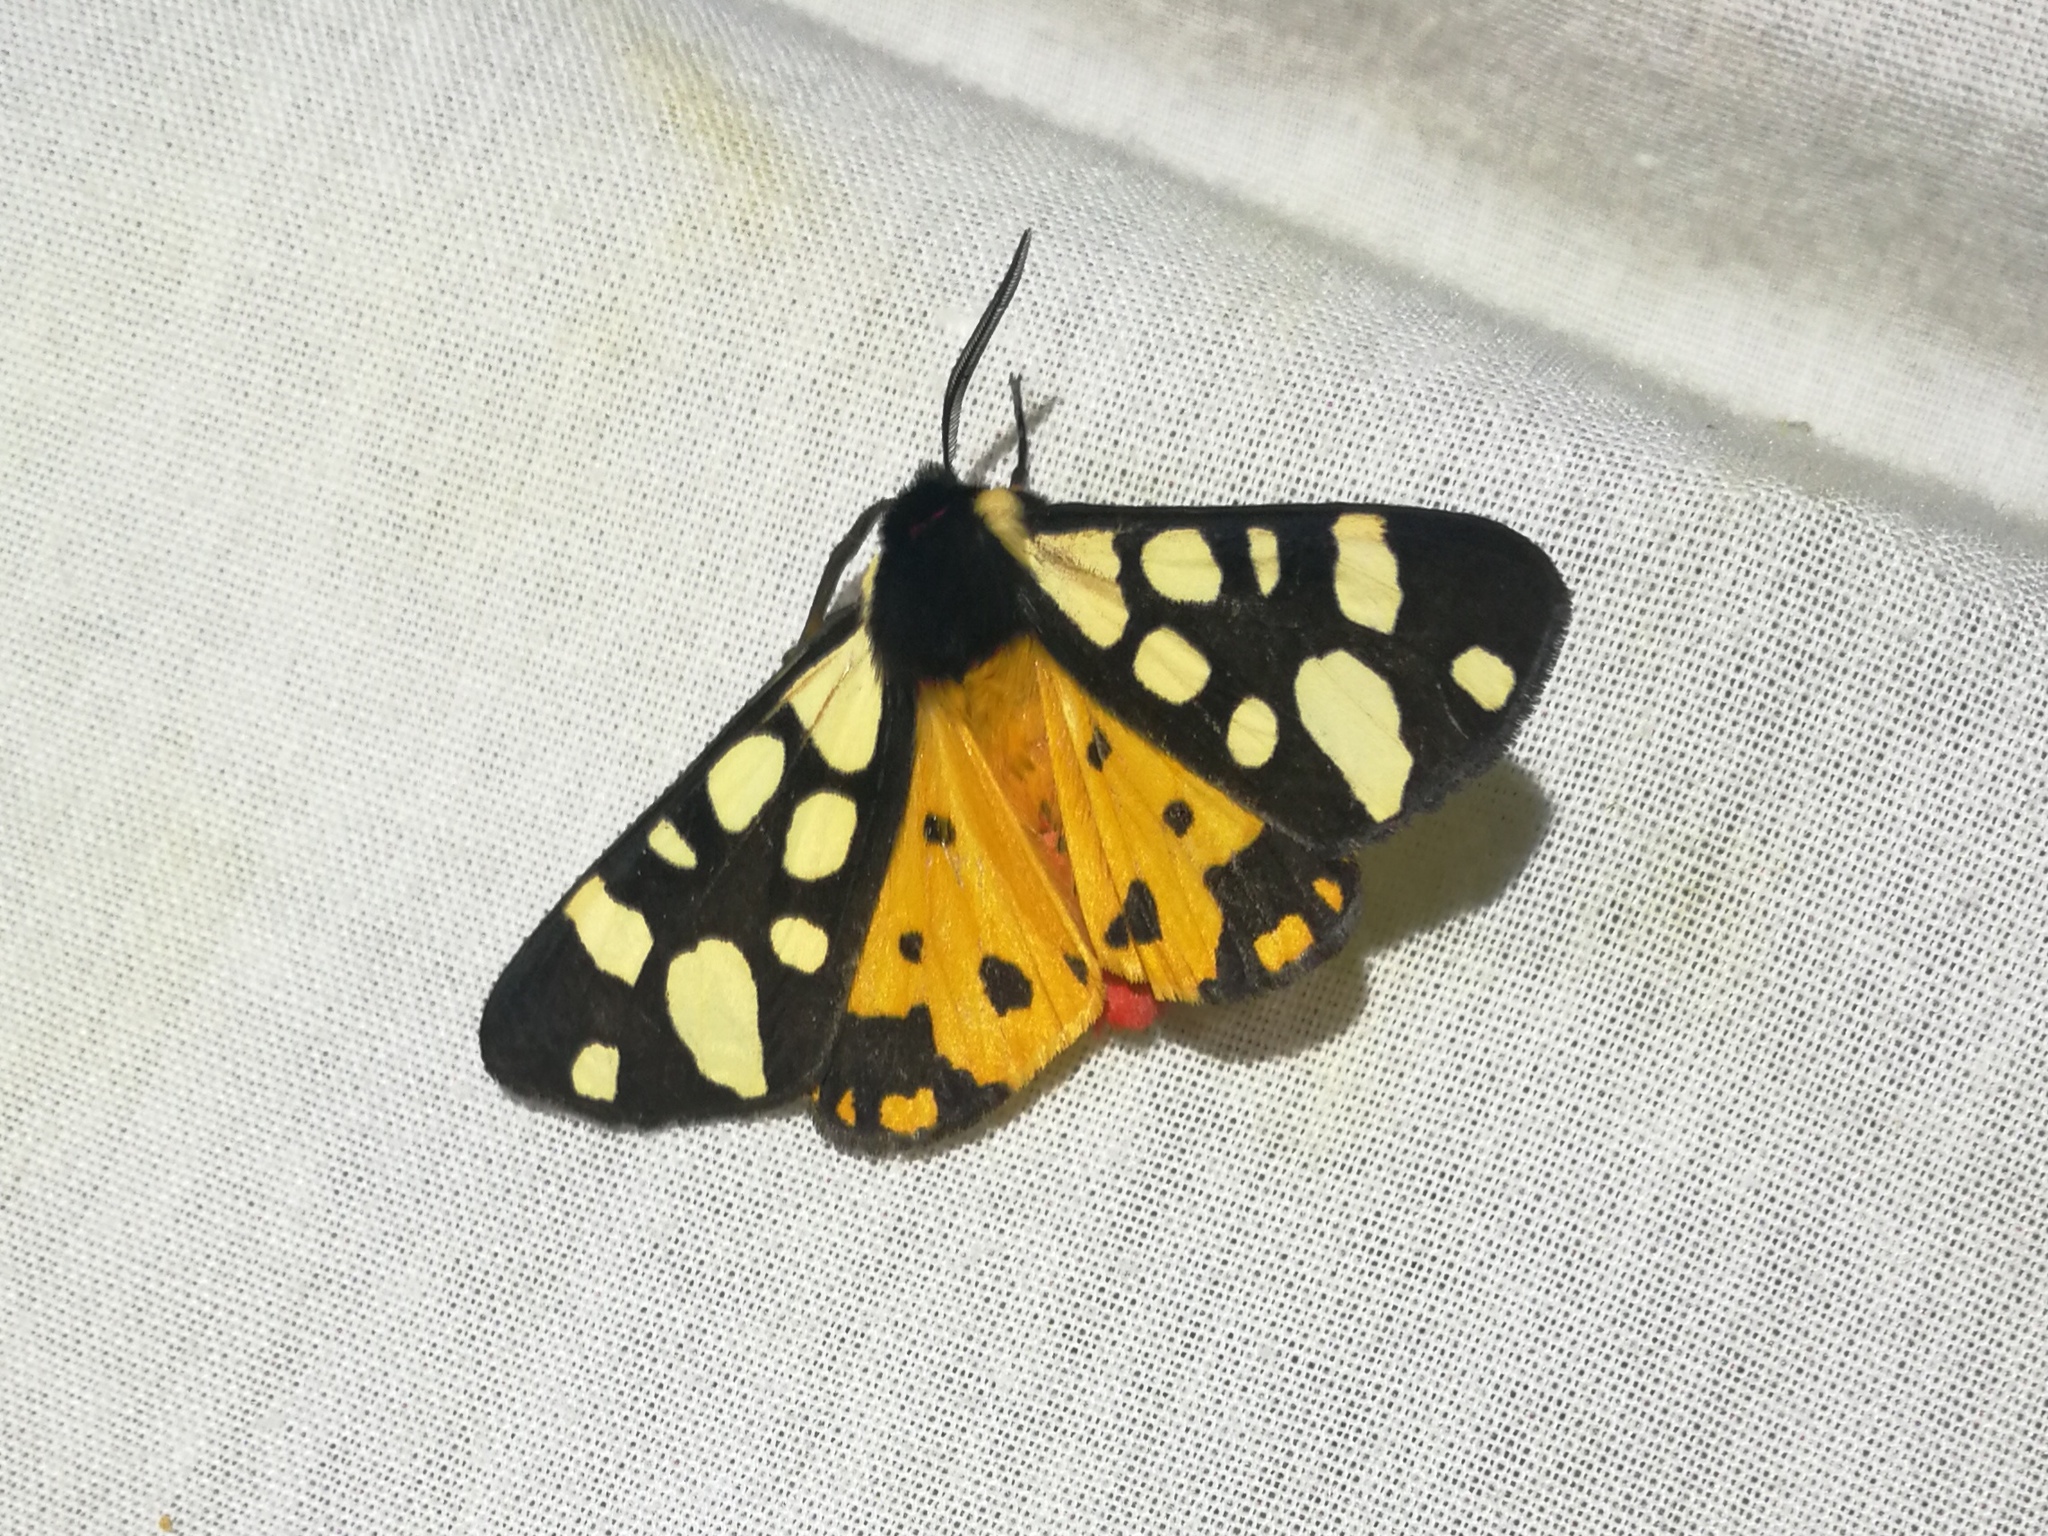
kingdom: Animalia
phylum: Arthropoda
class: Insecta
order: Lepidoptera
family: Erebidae
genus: Epicallia
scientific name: Epicallia villica
